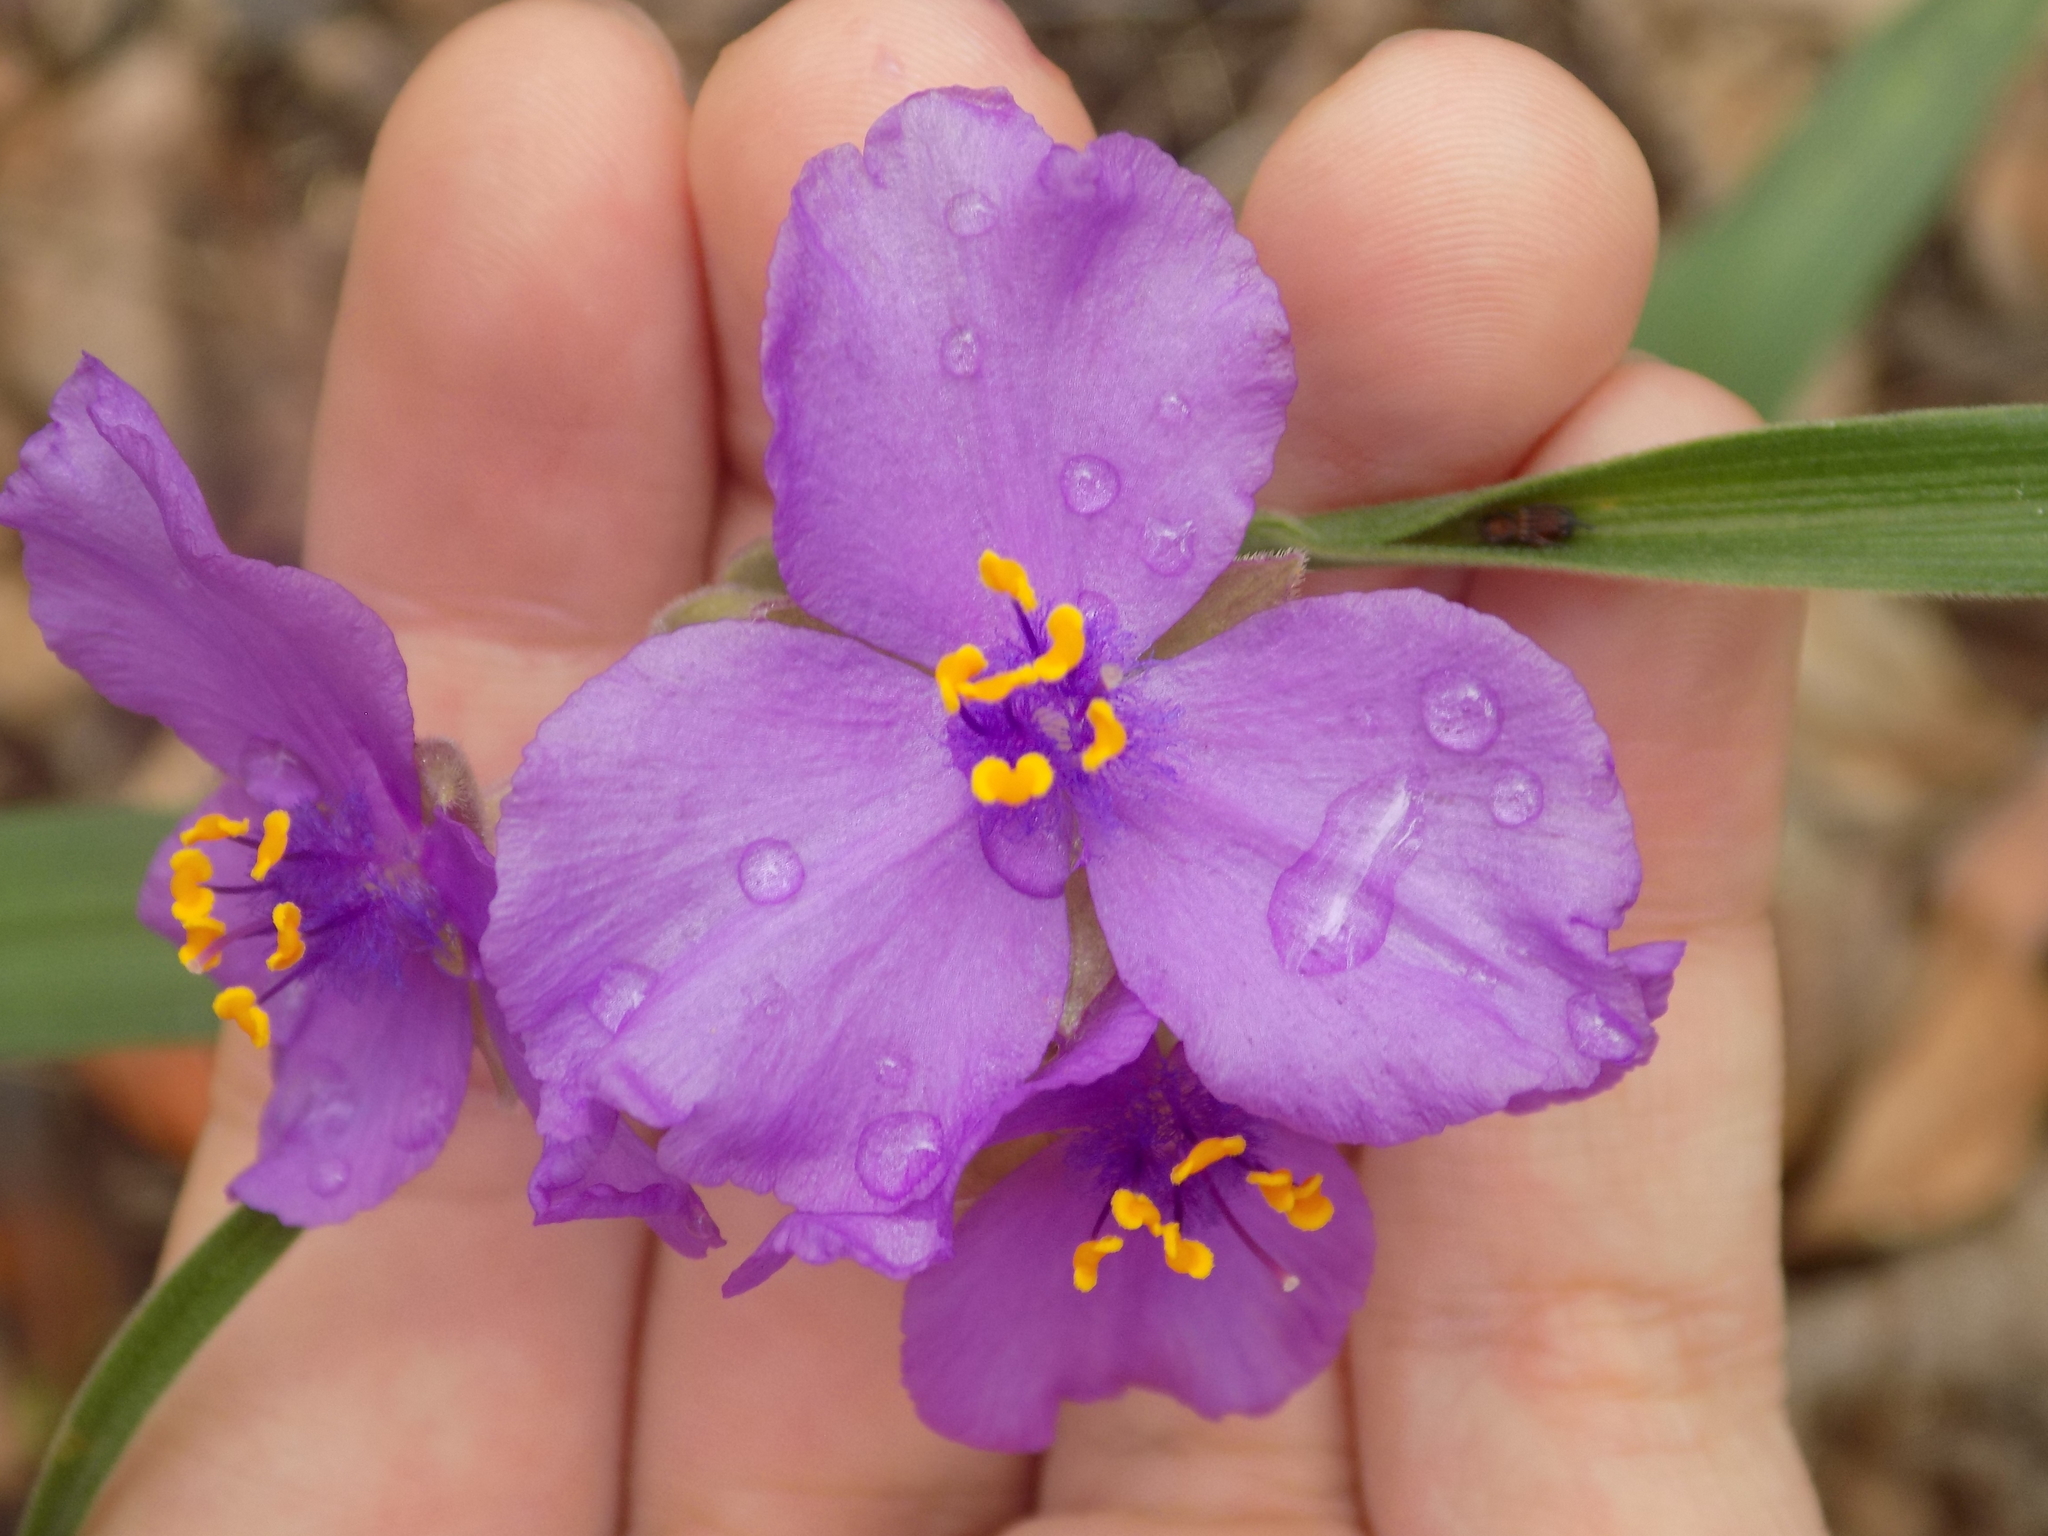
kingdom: Plantae
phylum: Tracheophyta
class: Liliopsida
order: Commelinales
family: Commelinaceae
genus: Tradescantia
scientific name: Tradescantia gigantea
